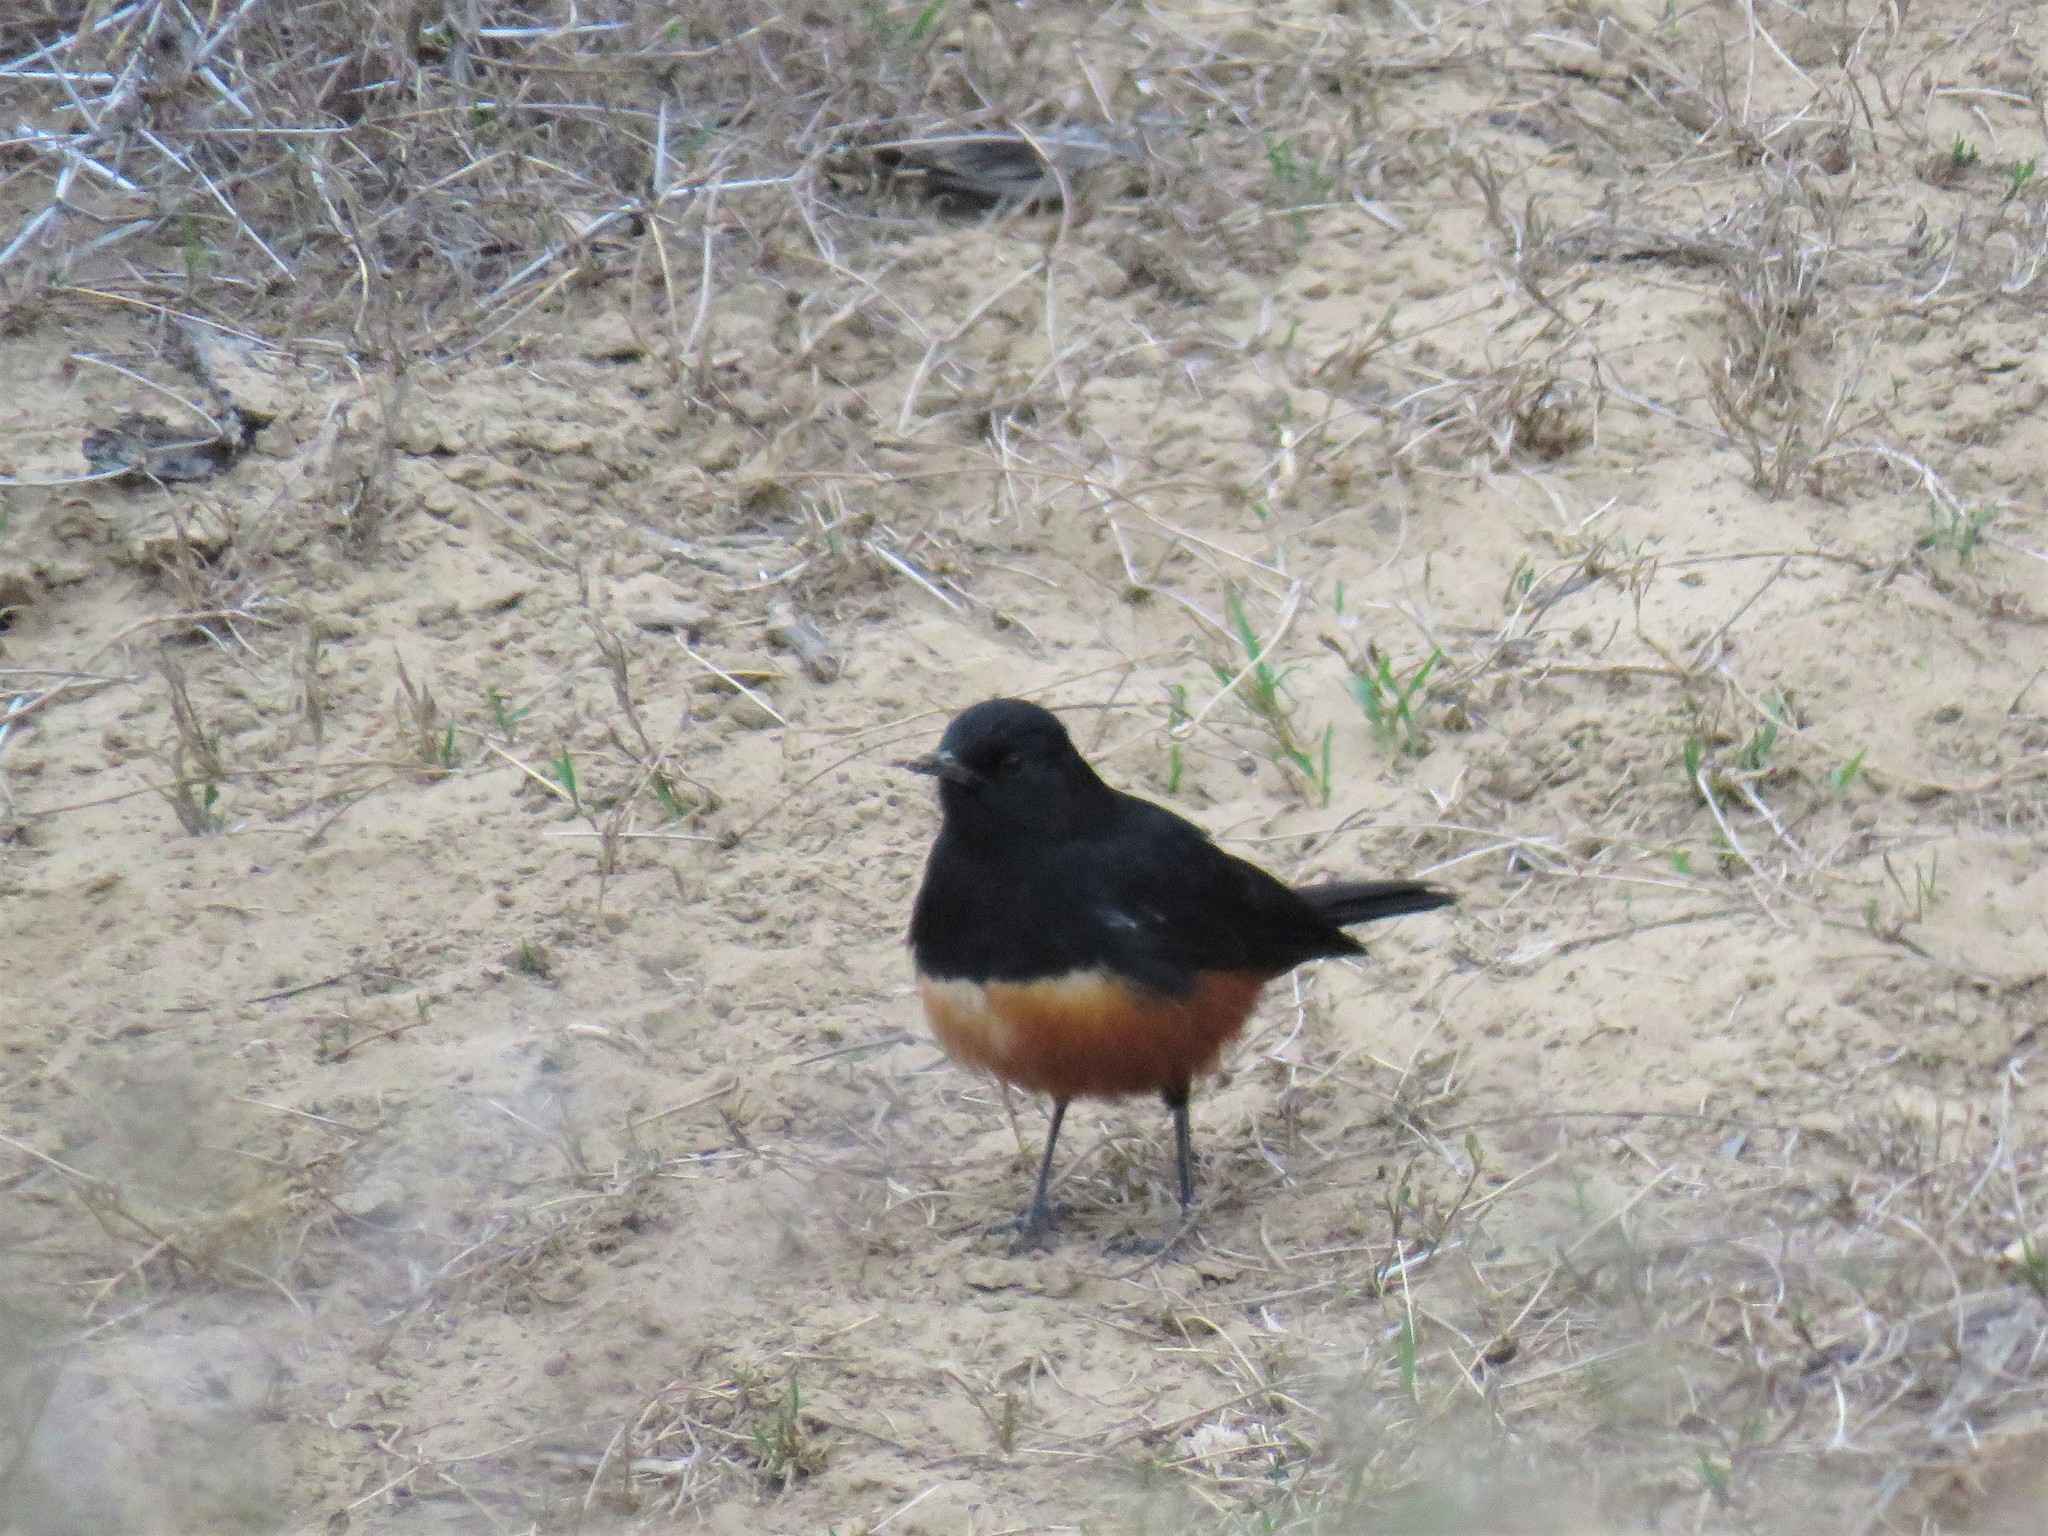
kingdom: Animalia
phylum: Chordata
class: Aves
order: Passeriformes
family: Muscicapidae
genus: Thamnolaea
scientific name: Thamnolaea cinnamomeiventris
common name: Mocking cliff chat
